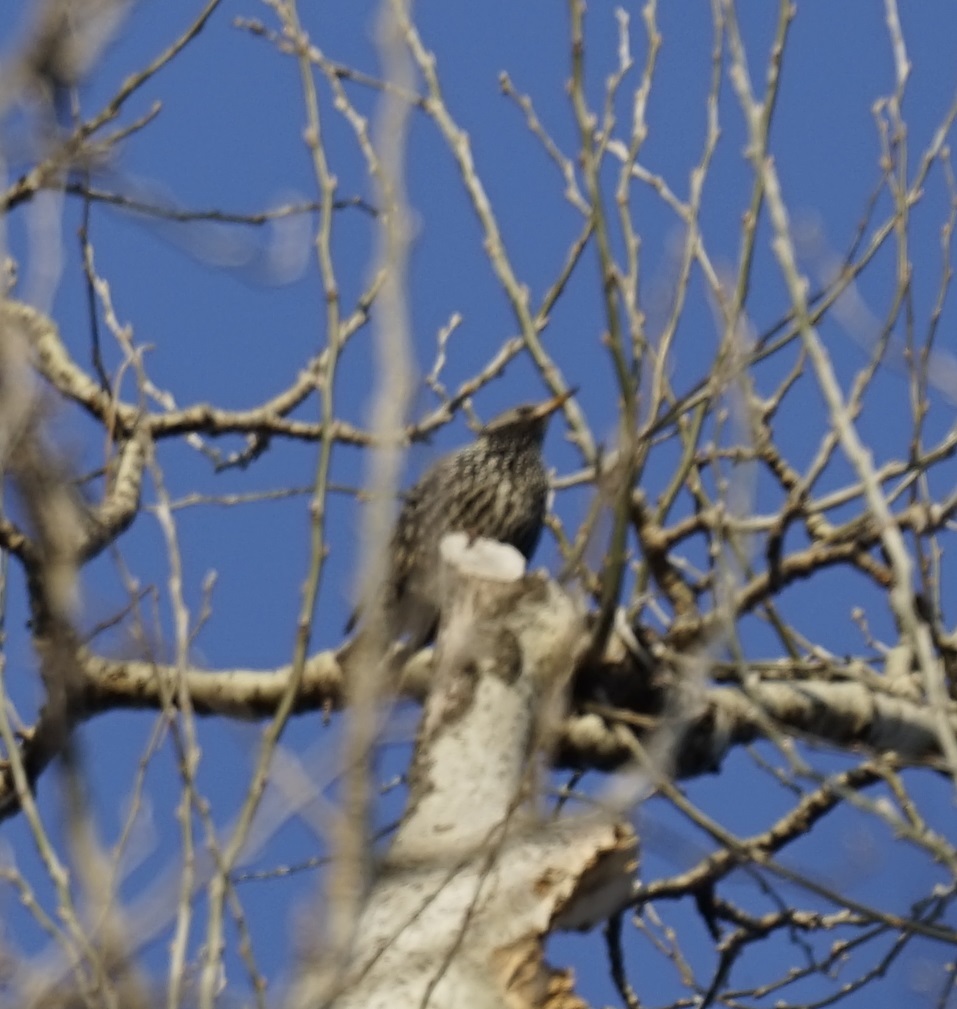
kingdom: Animalia
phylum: Chordata
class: Aves
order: Passeriformes
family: Sturnidae
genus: Sturnus
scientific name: Sturnus vulgaris
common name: Common starling
